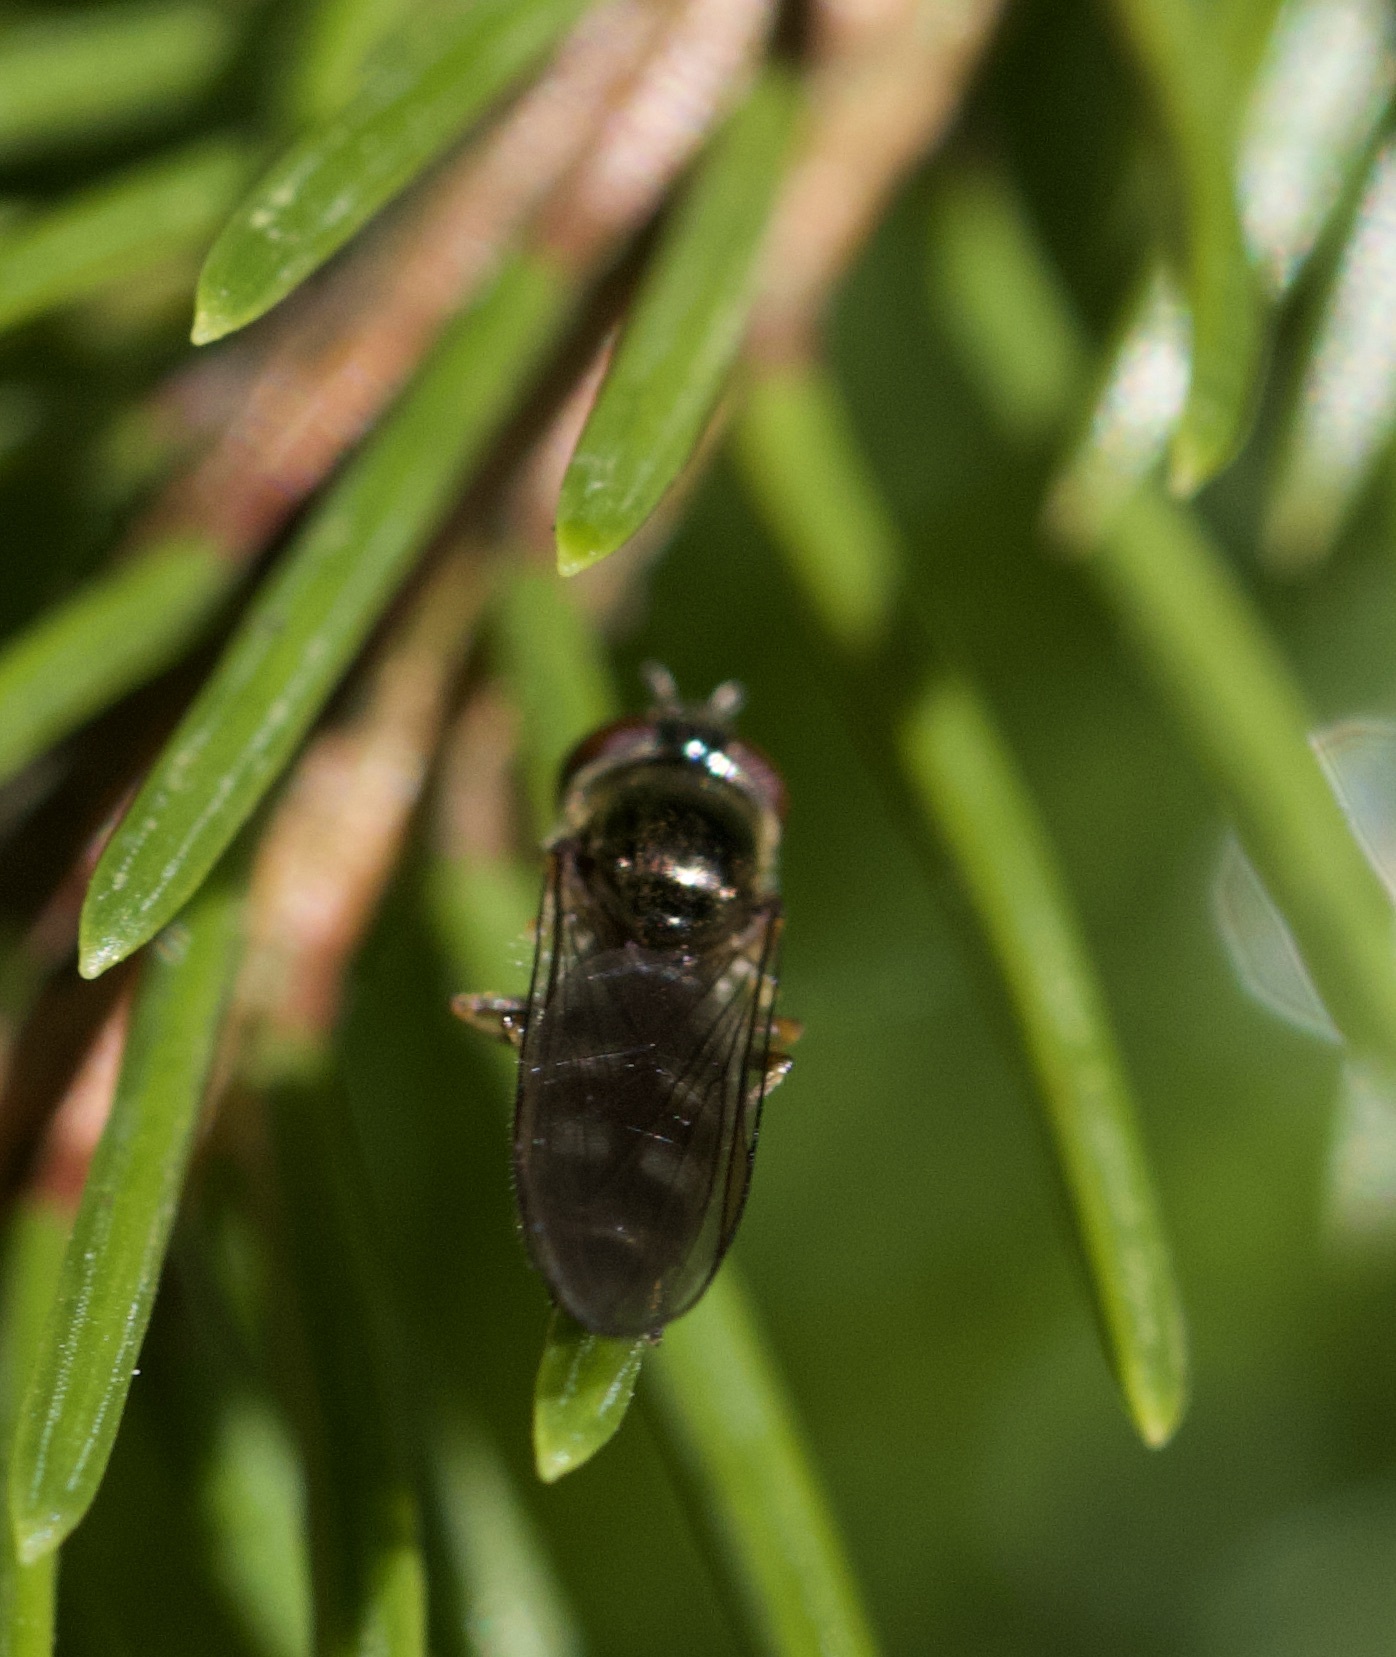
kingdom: Animalia
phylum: Arthropoda
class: Insecta
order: Diptera
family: Syrphidae
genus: Platycheirus
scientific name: Platycheirus albimanus
